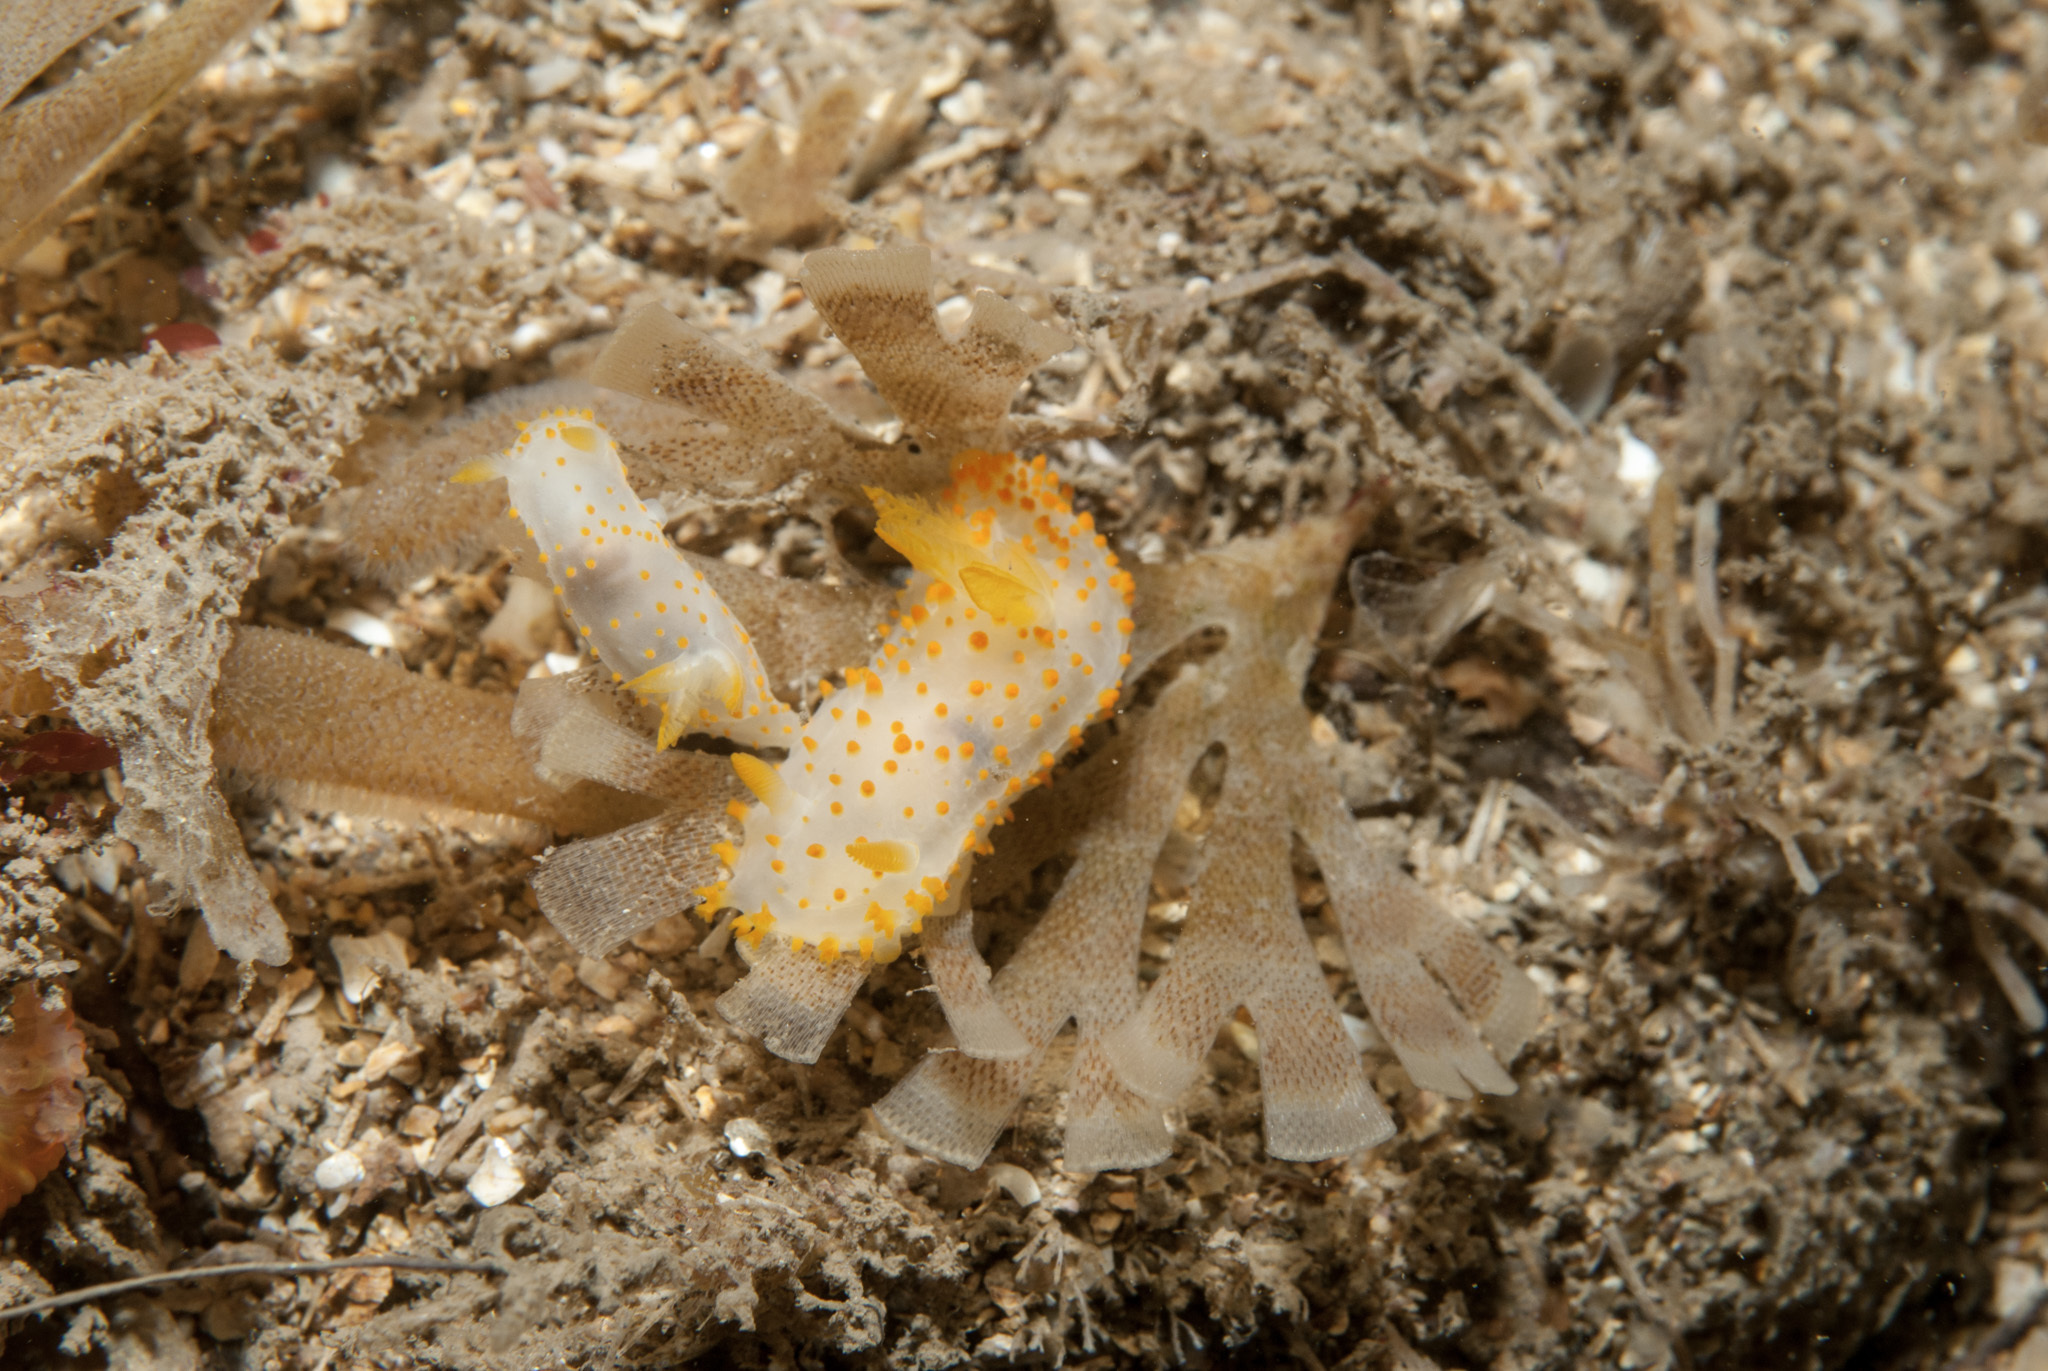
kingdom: Animalia
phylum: Mollusca
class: Gastropoda
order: Nudibranchia
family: Polyceridae
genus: Crimora
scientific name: Crimora papillata
